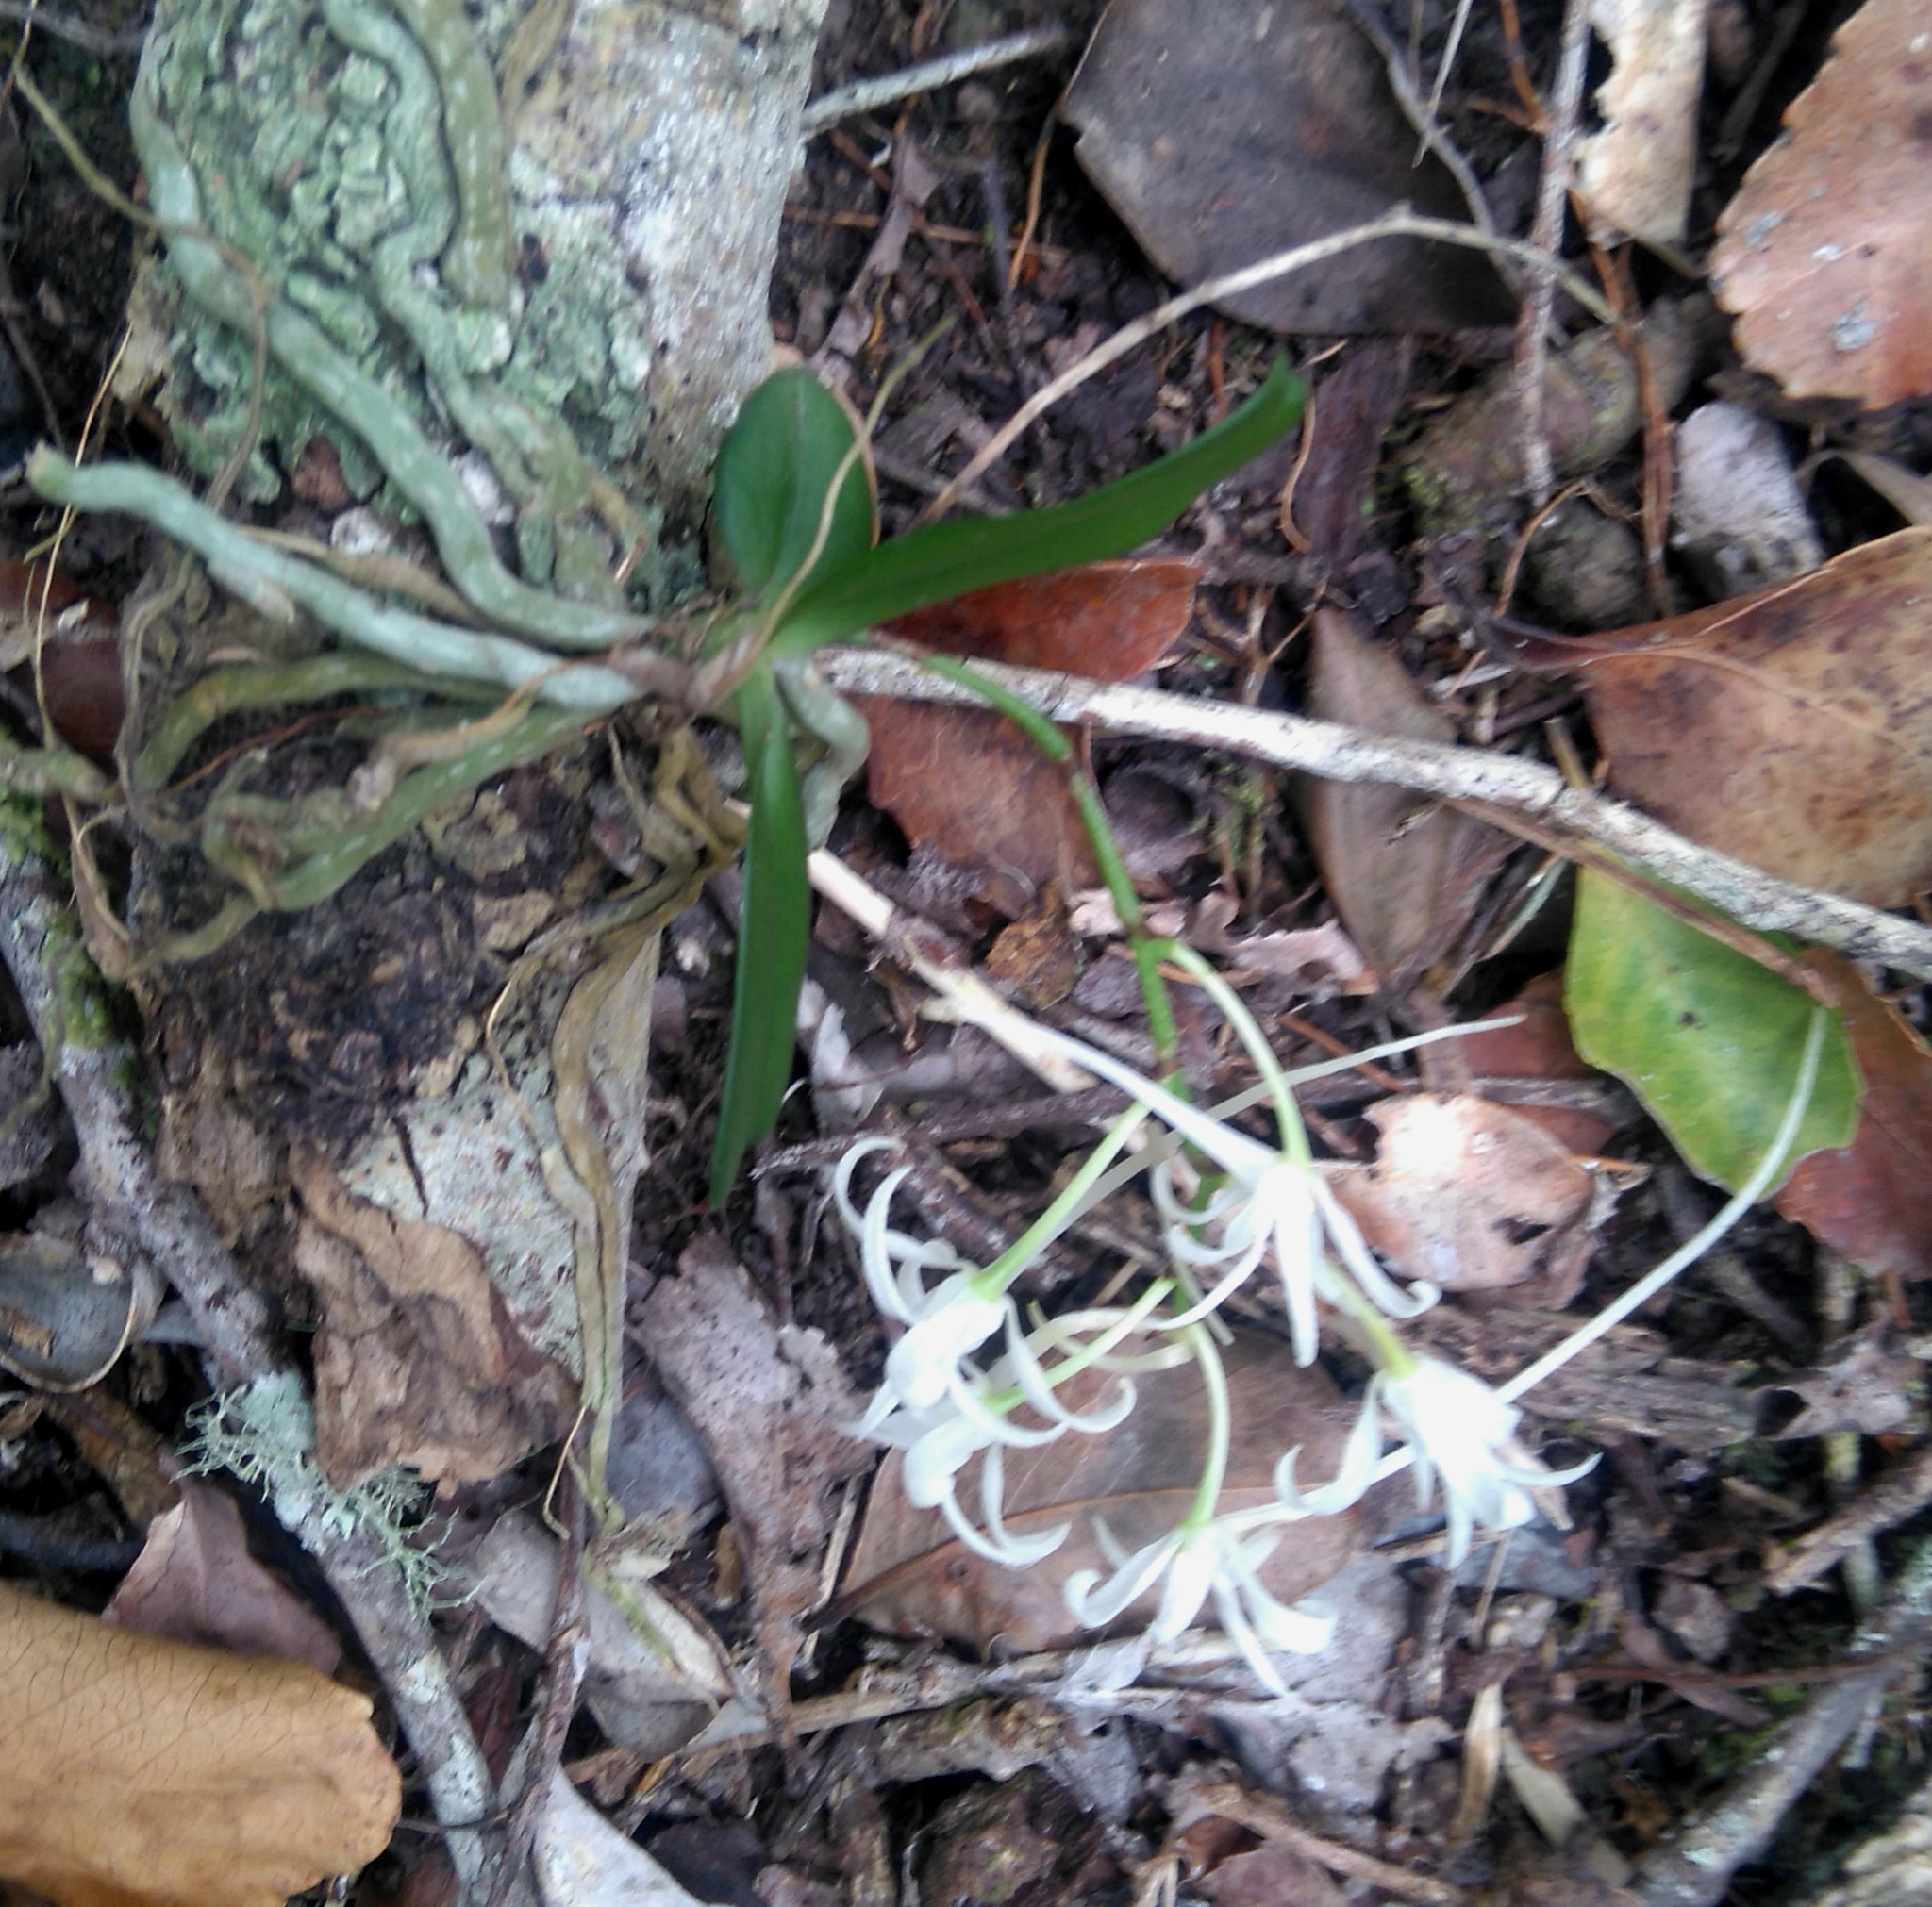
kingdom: Plantae
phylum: Tracheophyta
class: Liliopsida
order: Asparagales
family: Orchidaceae
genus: Mystacidium
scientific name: Mystacidium capense
